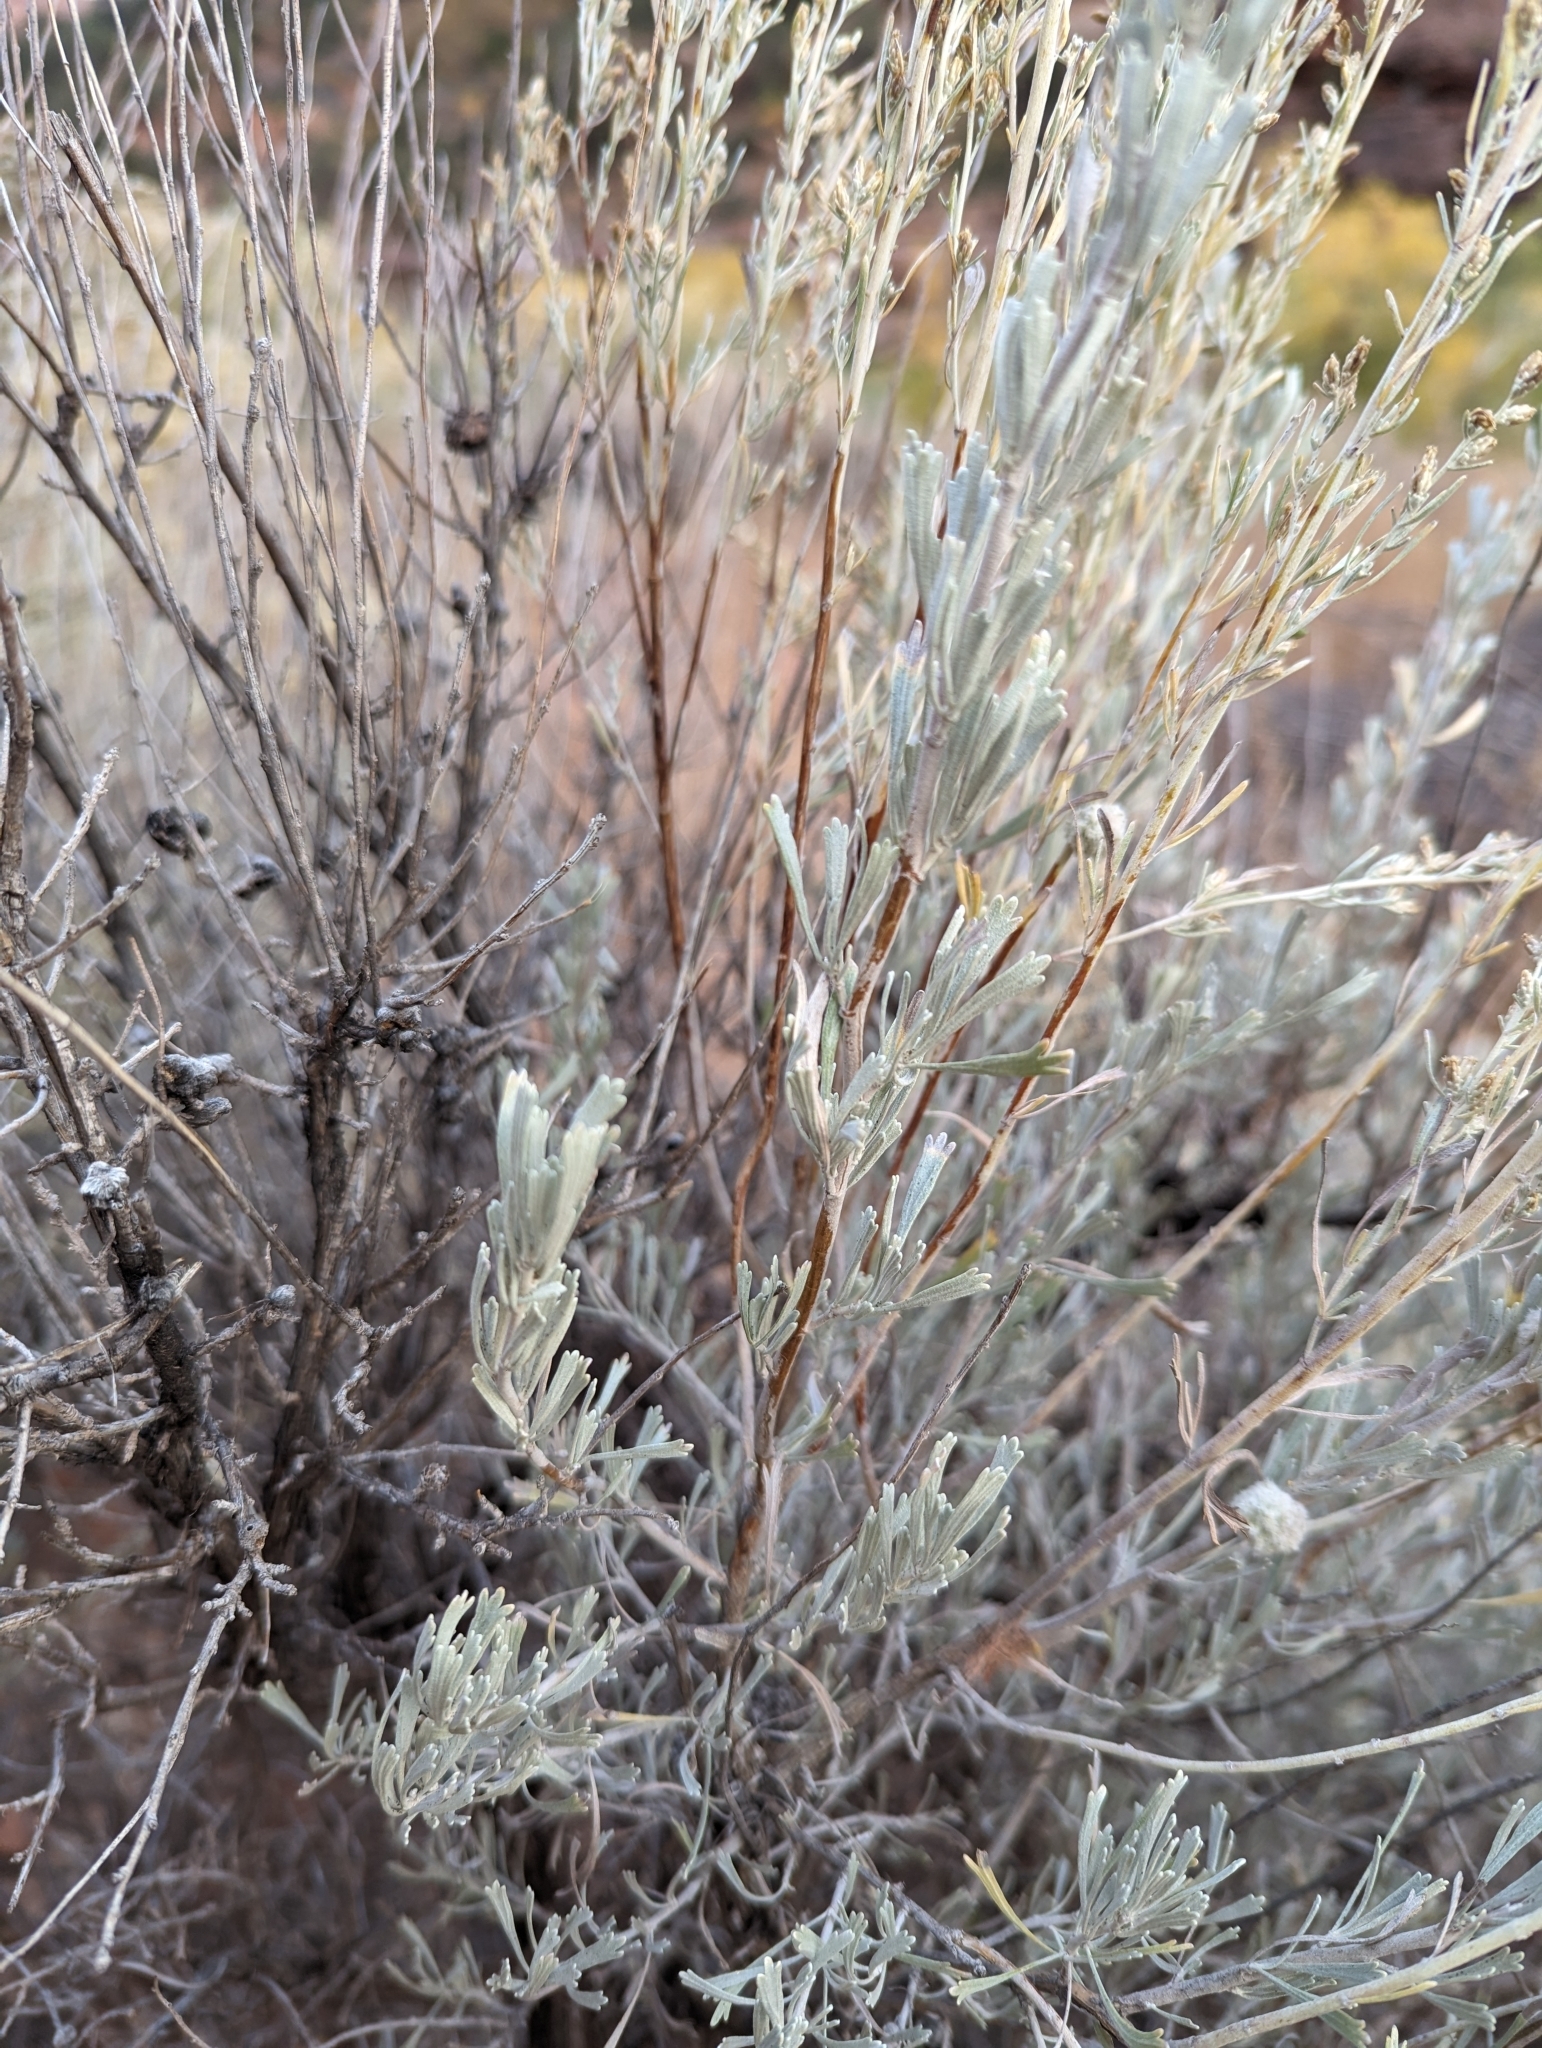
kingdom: Plantae
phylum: Tracheophyta
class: Magnoliopsida
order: Asterales
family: Asteraceae
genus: Artemisia
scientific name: Artemisia tridentata
